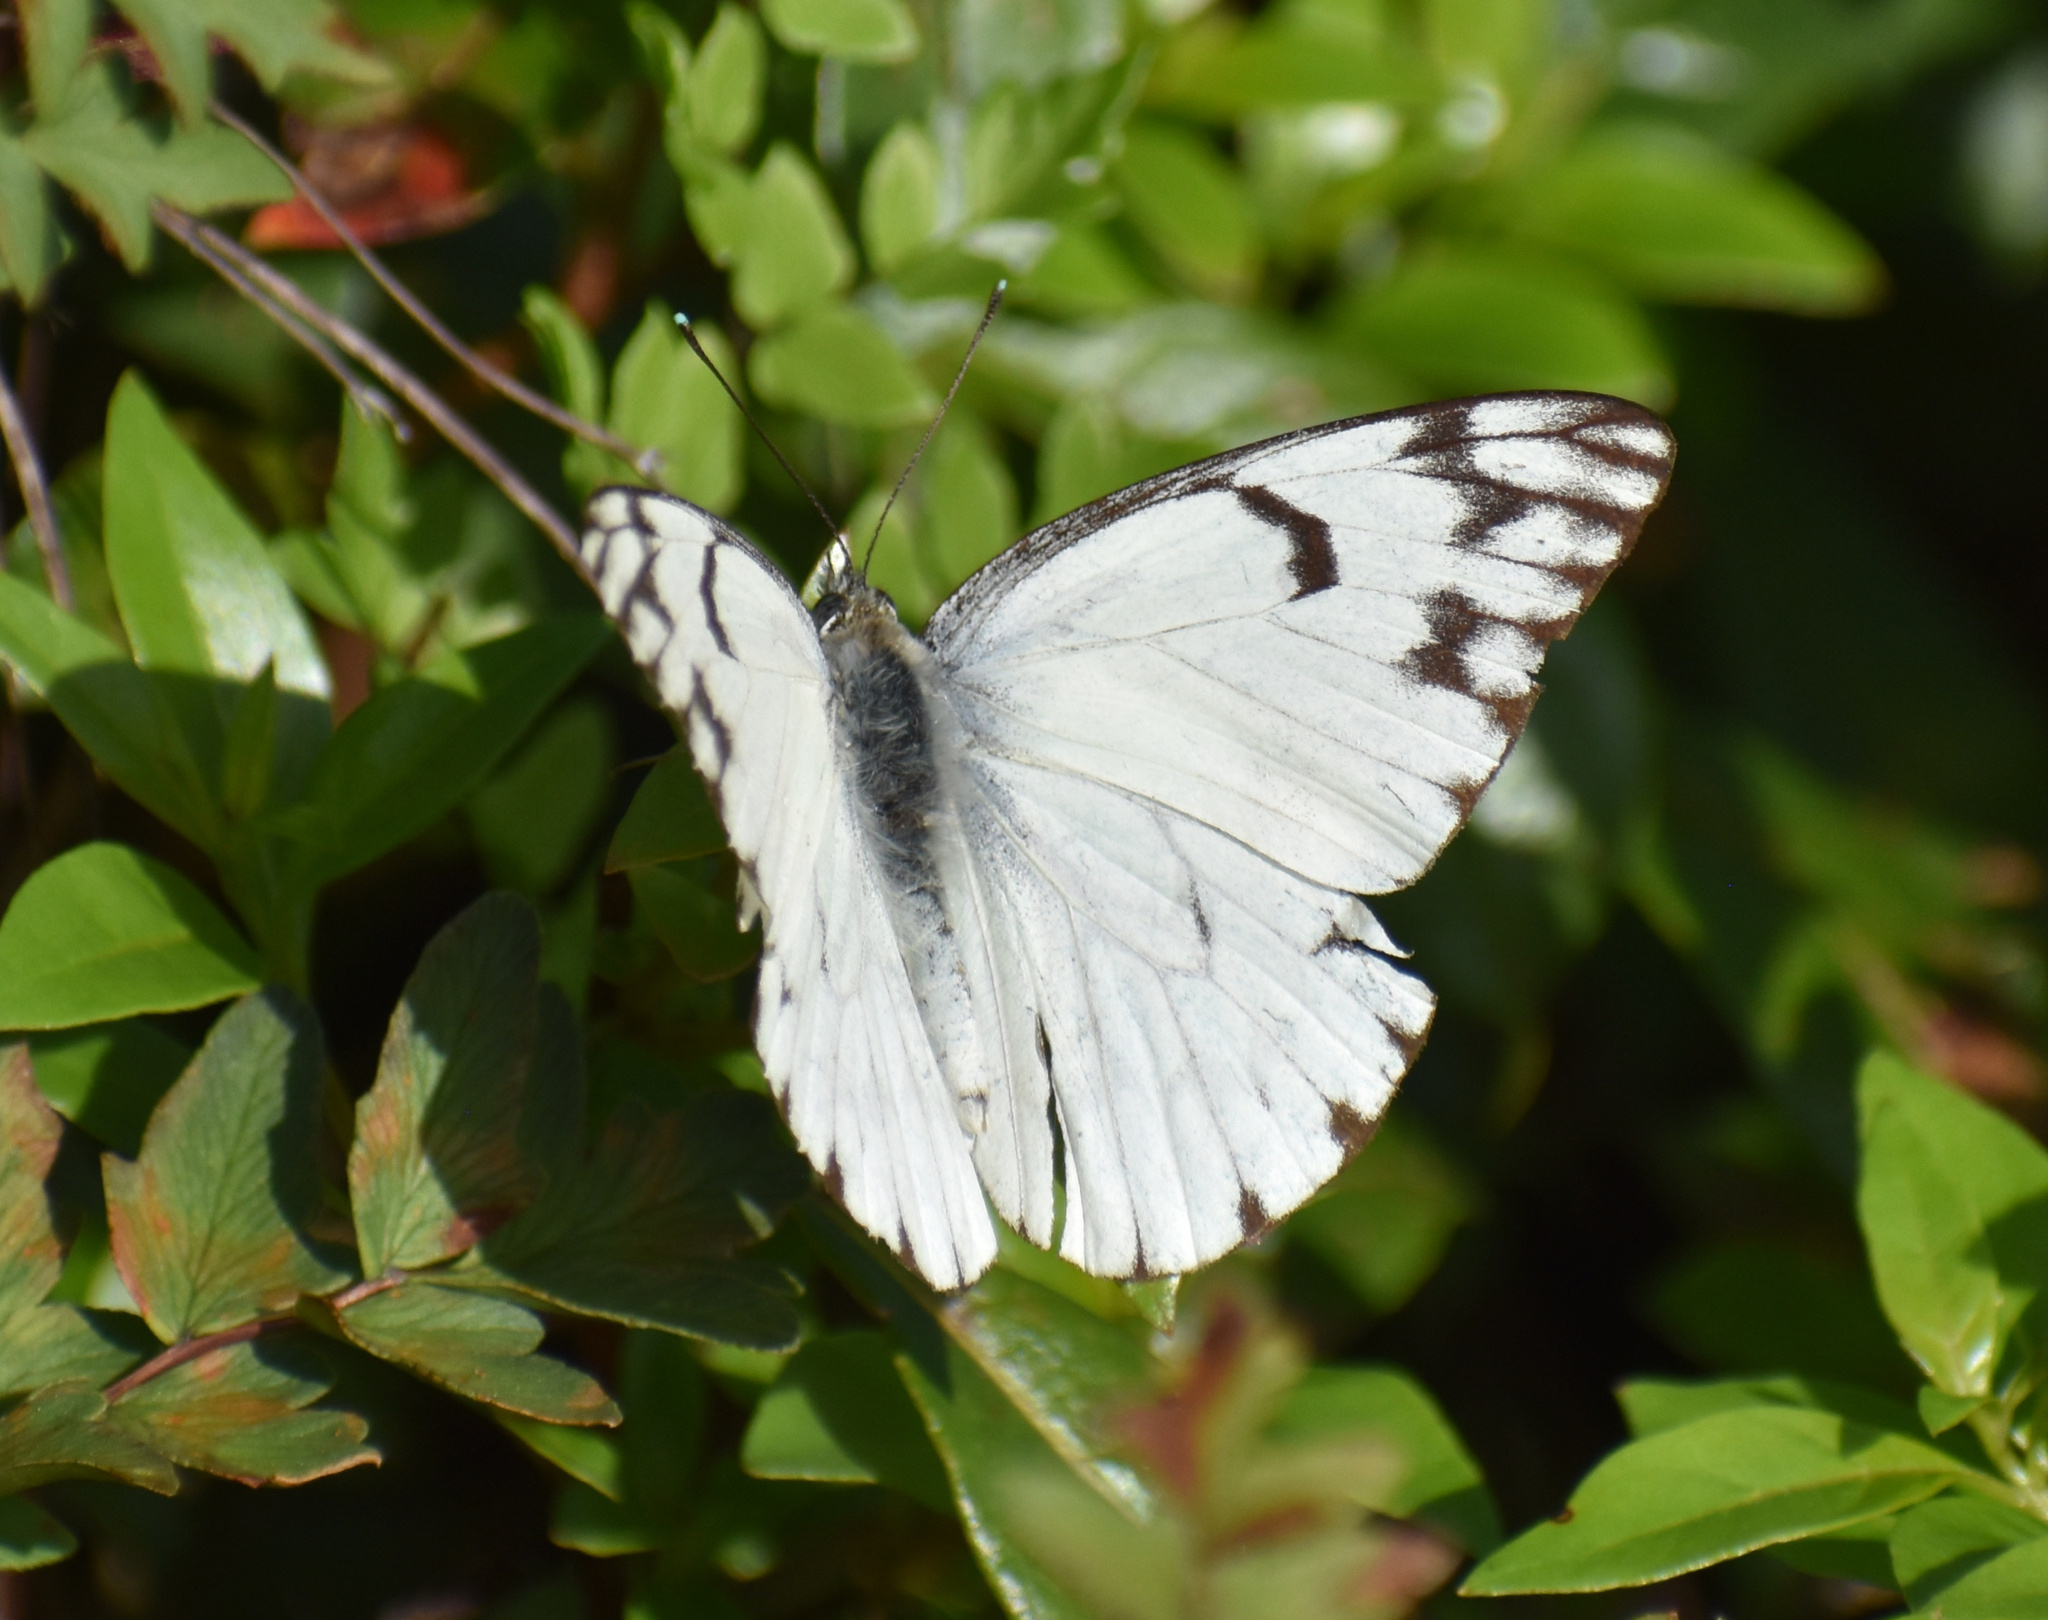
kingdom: Animalia
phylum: Arthropoda
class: Insecta
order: Lepidoptera
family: Pieridae
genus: Belenois
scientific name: Belenois gidica
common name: Pointed caper white
